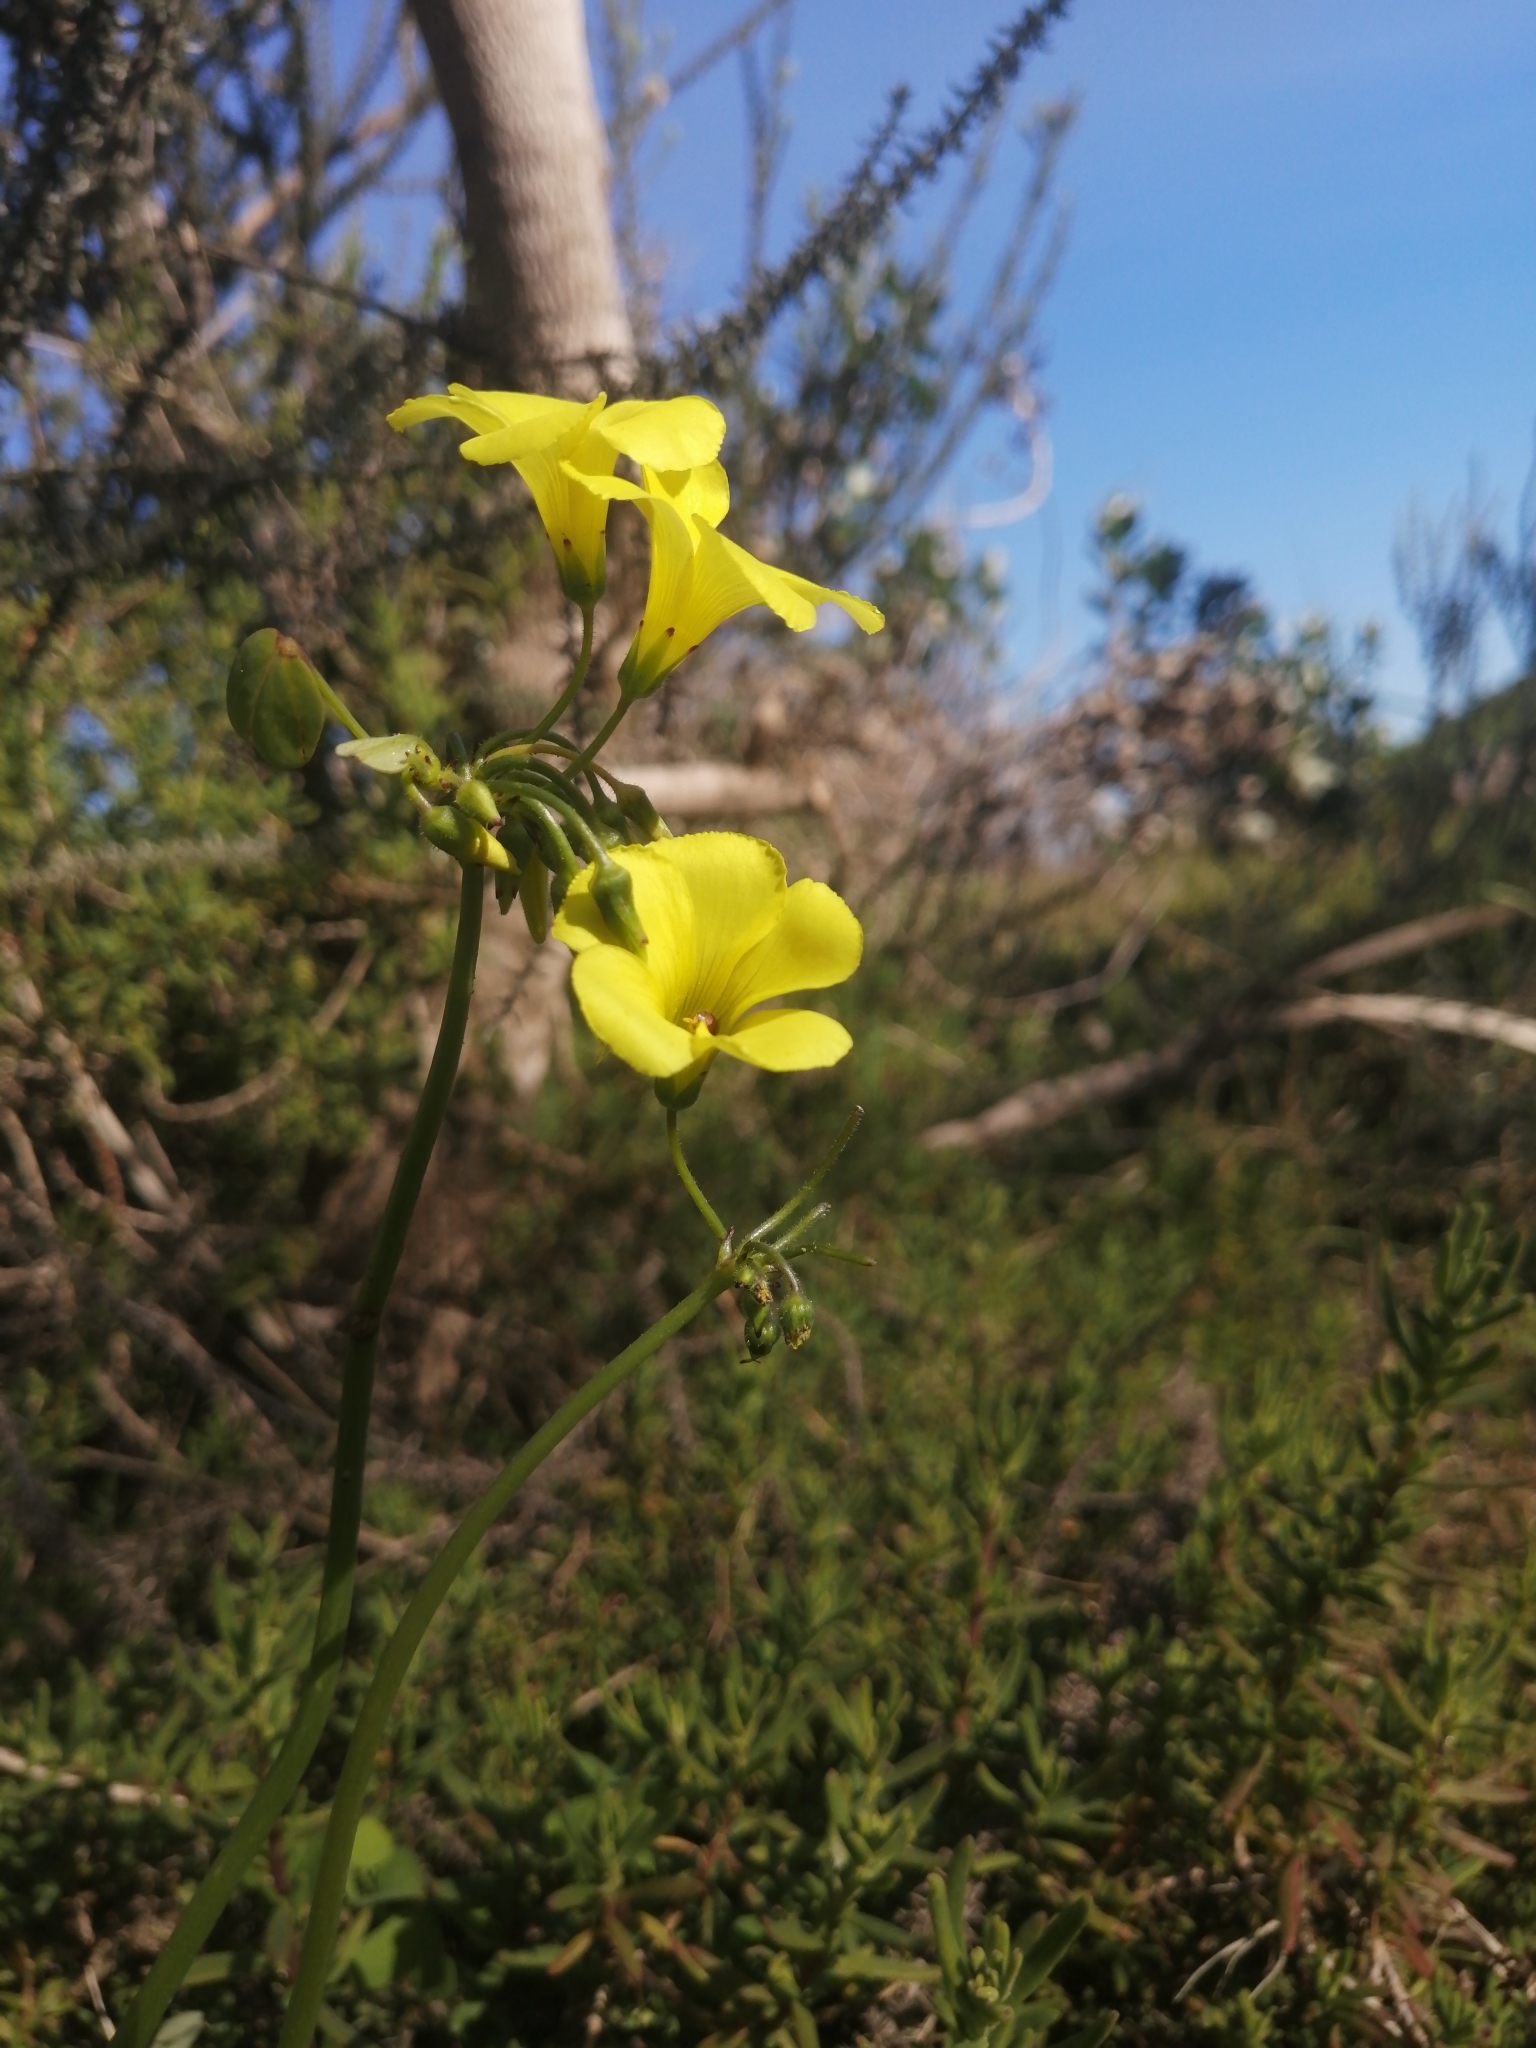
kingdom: Plantae
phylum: Tracheophyta
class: Magnoliopsida
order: Oxalidales
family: Oxalidaceae
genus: Oxalis
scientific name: Oxalis pes-caprae
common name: Bermuda-buttercup
